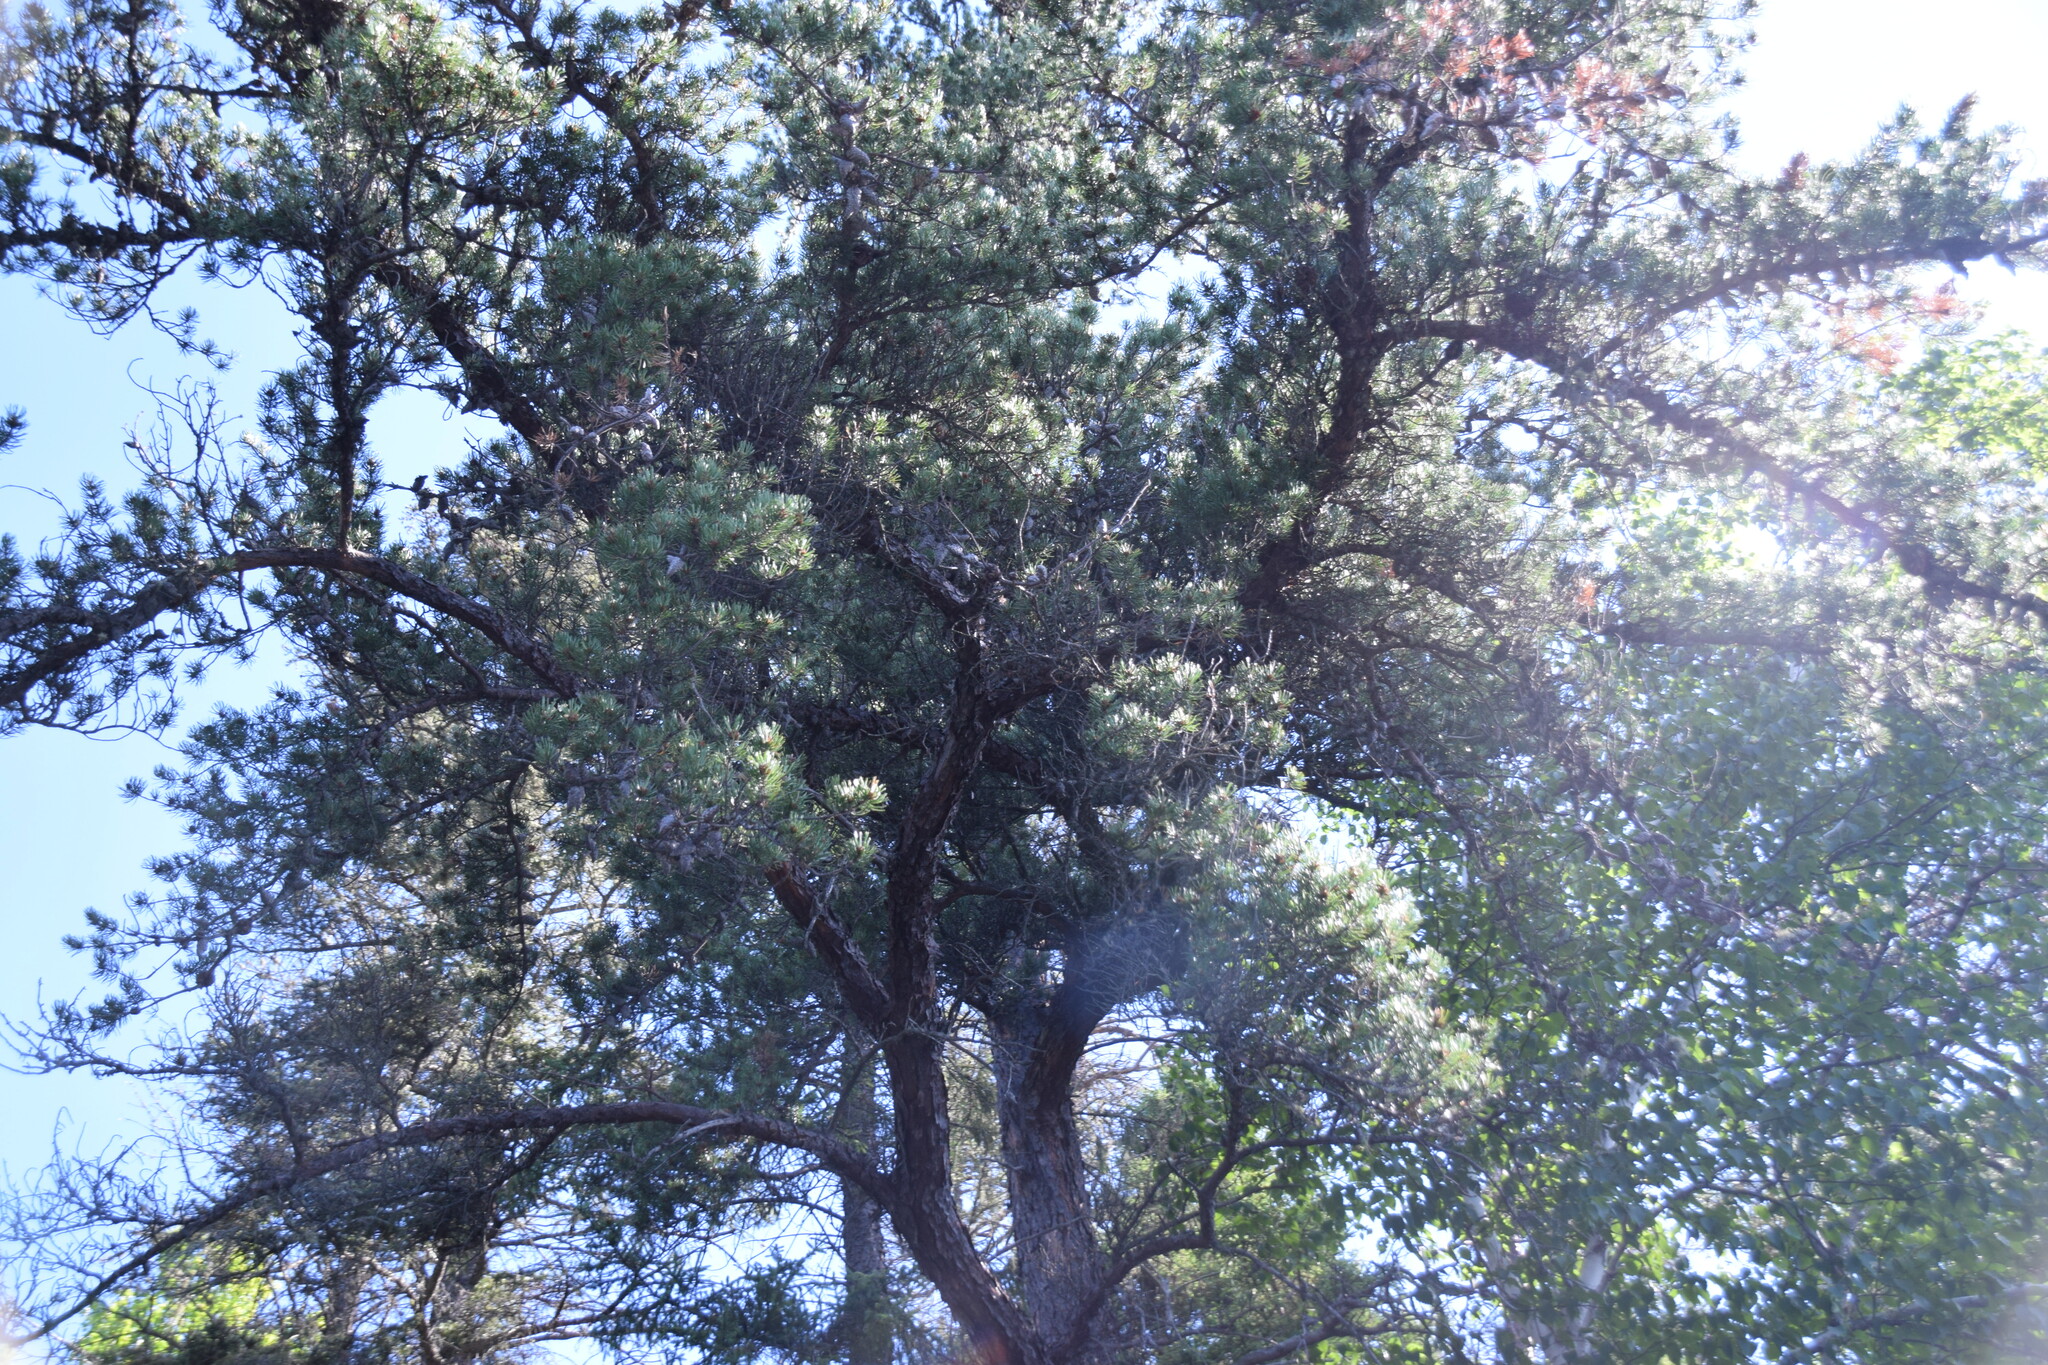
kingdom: Plantae
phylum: Tracheophyta
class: Pinopsida
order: Pinales
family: Pinaceae
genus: Pinus
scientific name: Pinus banksiana
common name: Jack pine
